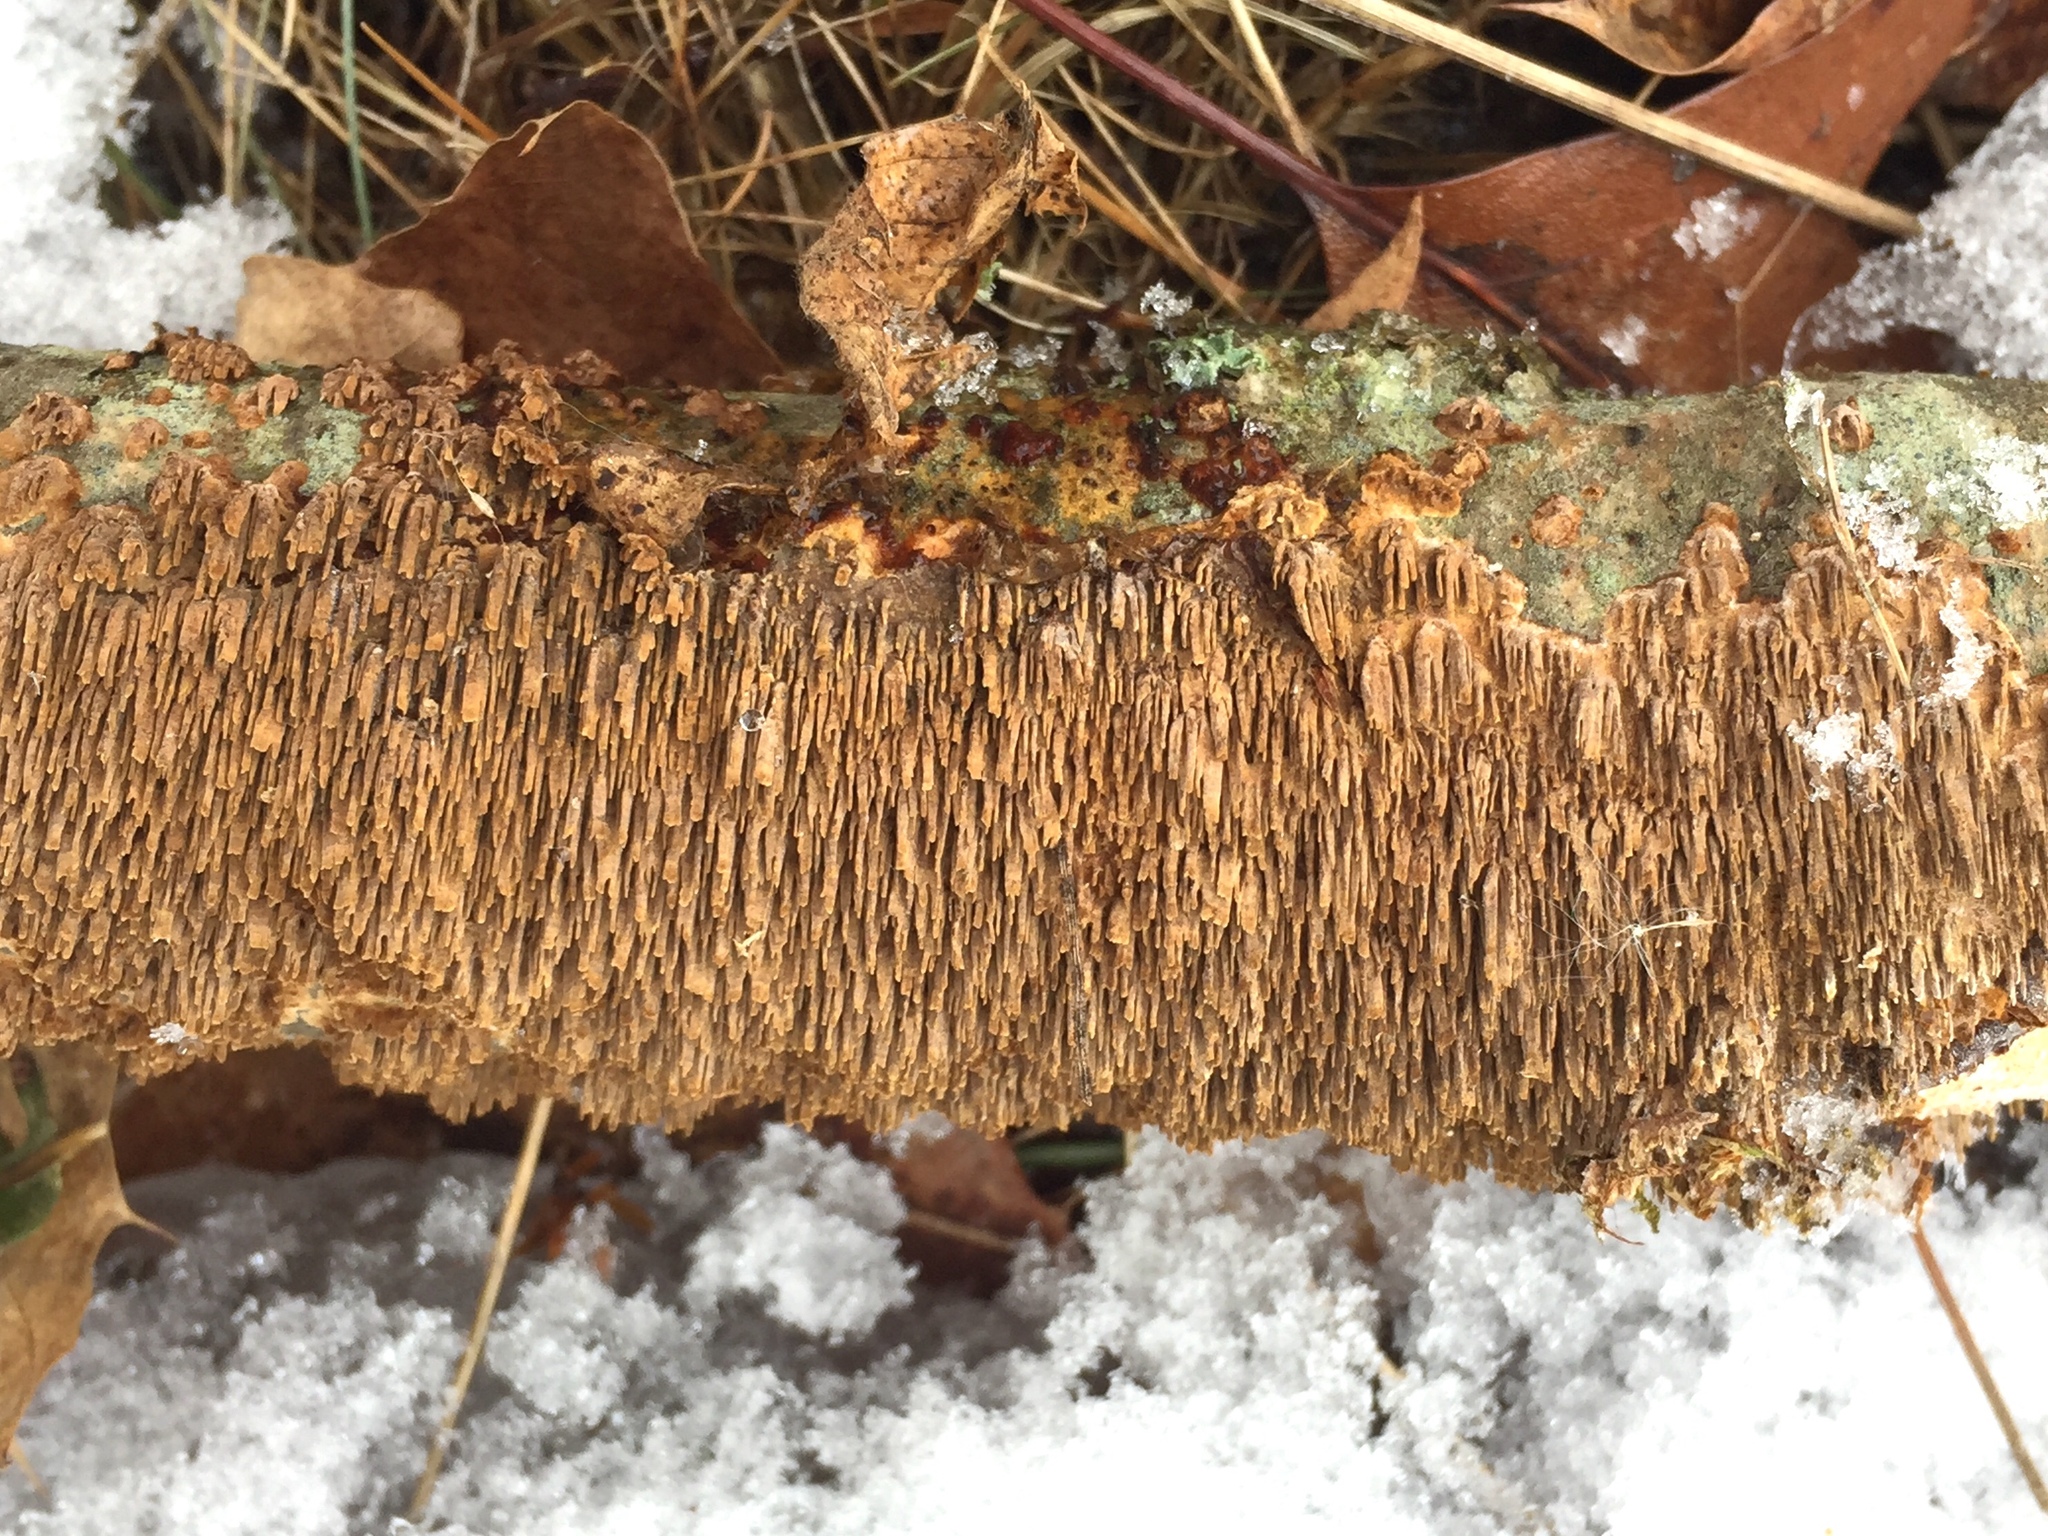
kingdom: Fungi
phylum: Basidiomycota
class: Agaricomycetes
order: Hymenochaetales
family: Hymenochaetaceae
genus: Hydnoporia
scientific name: Hydnoporia olivacea
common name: Brown-toothed crust fungus
